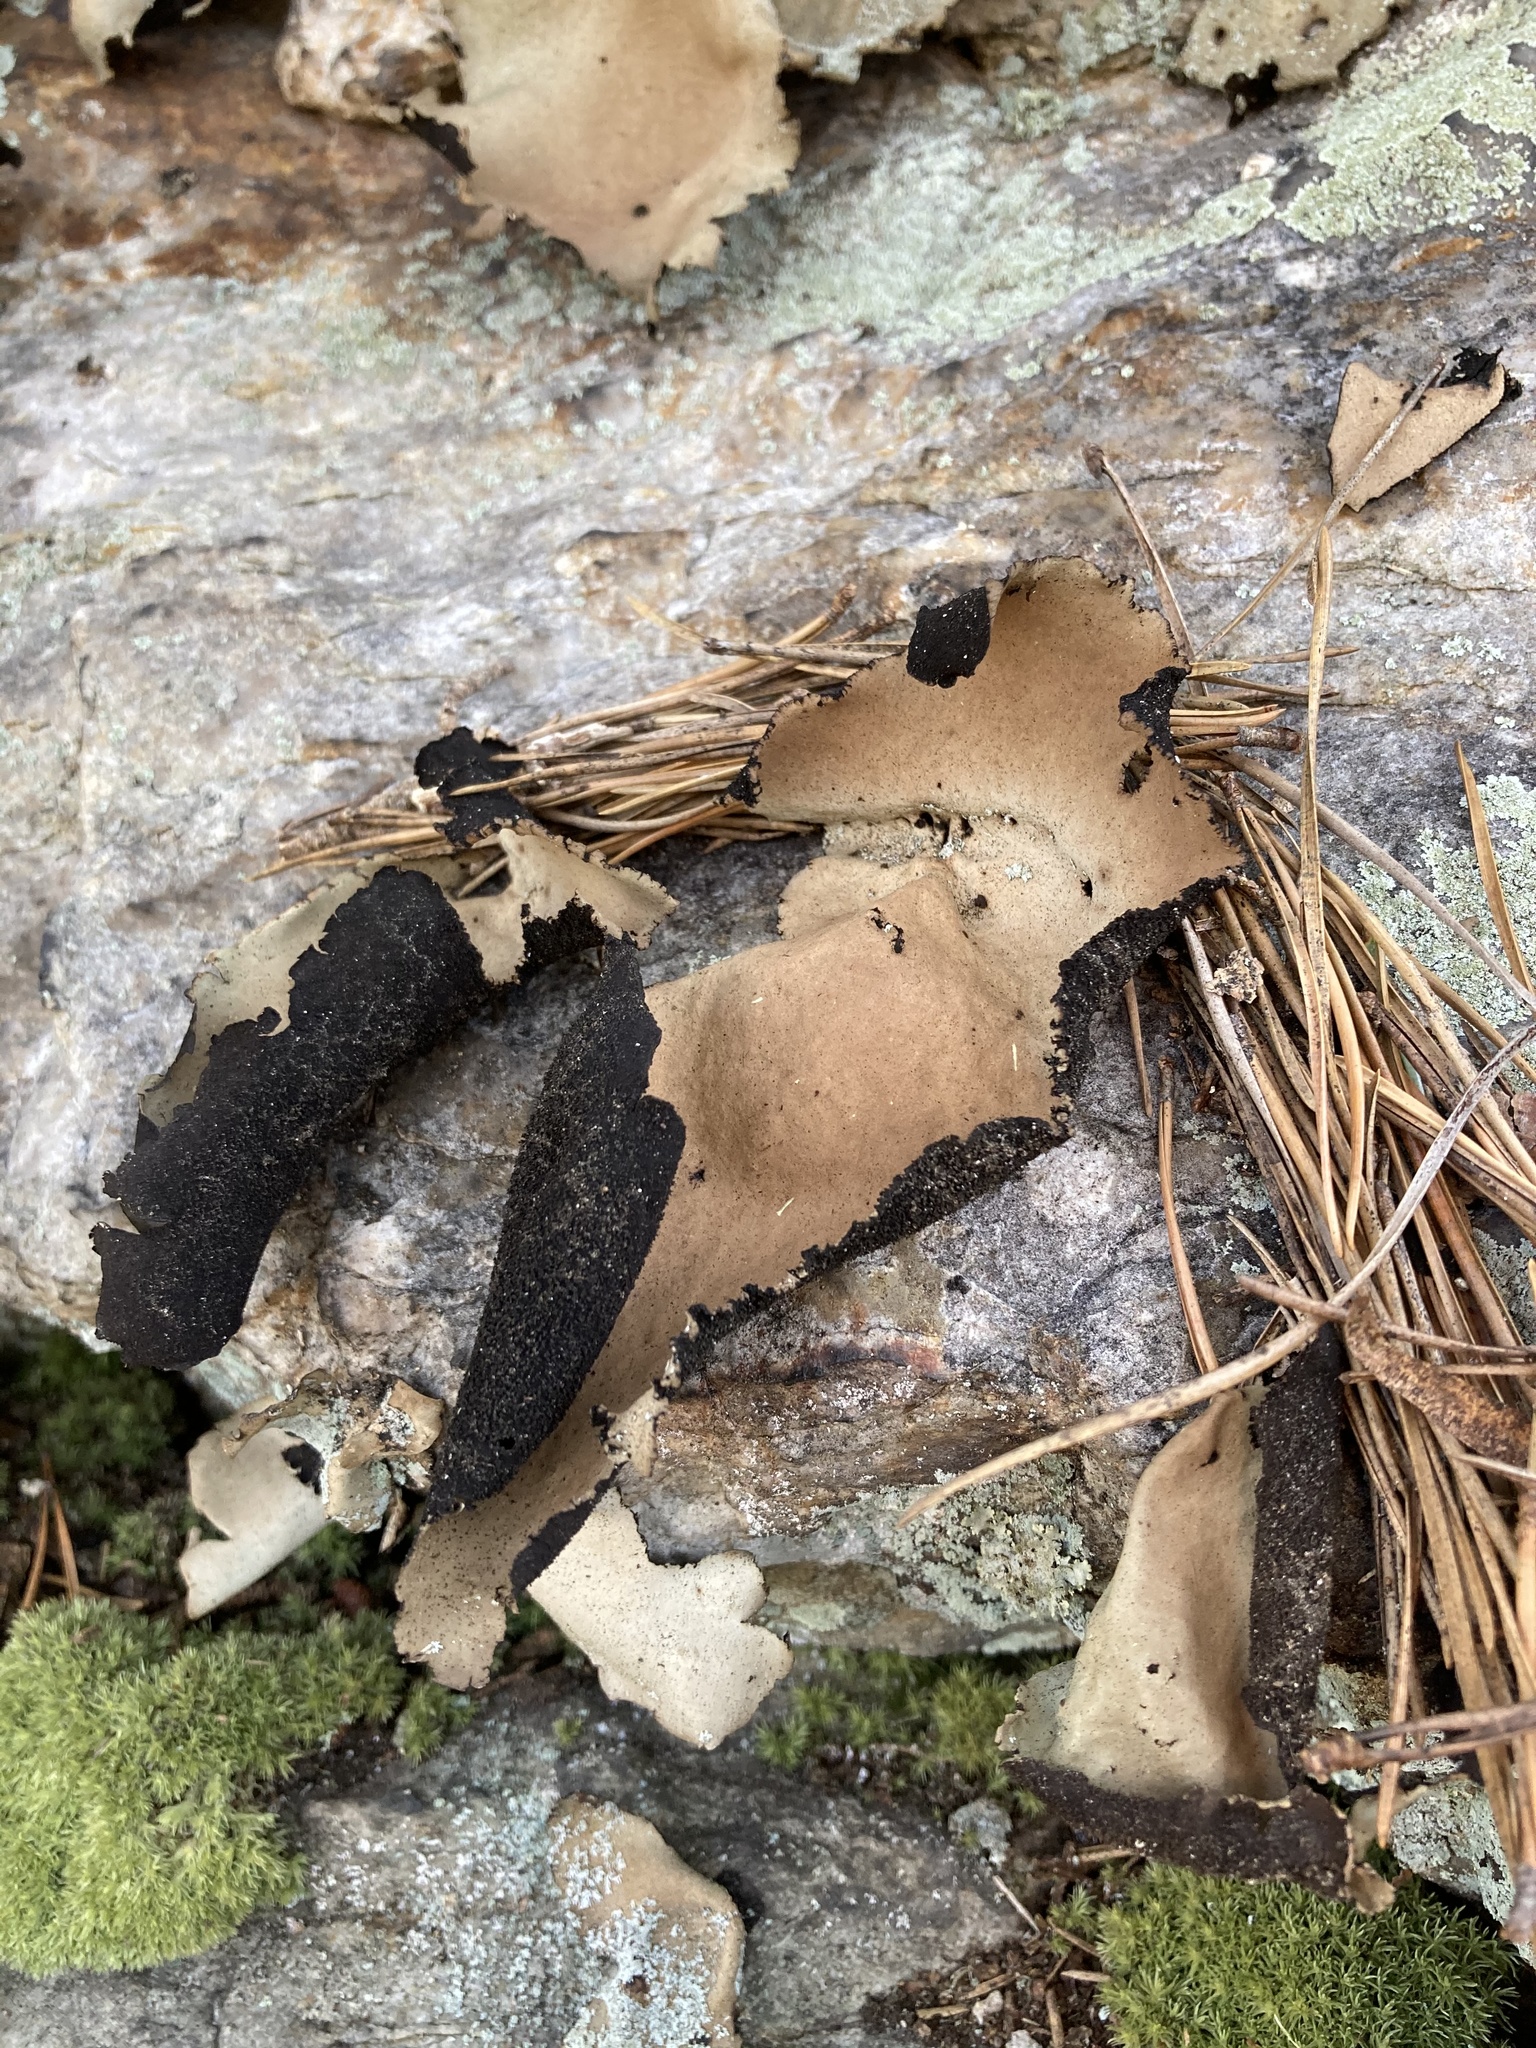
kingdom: Fungi
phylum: Ascomycota
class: Lecanoromycetes
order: Umbilicariales
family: Umbilicariaceae
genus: Umbilicaria
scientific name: Umbilicaria mammulata
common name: Smooth rock tripe
